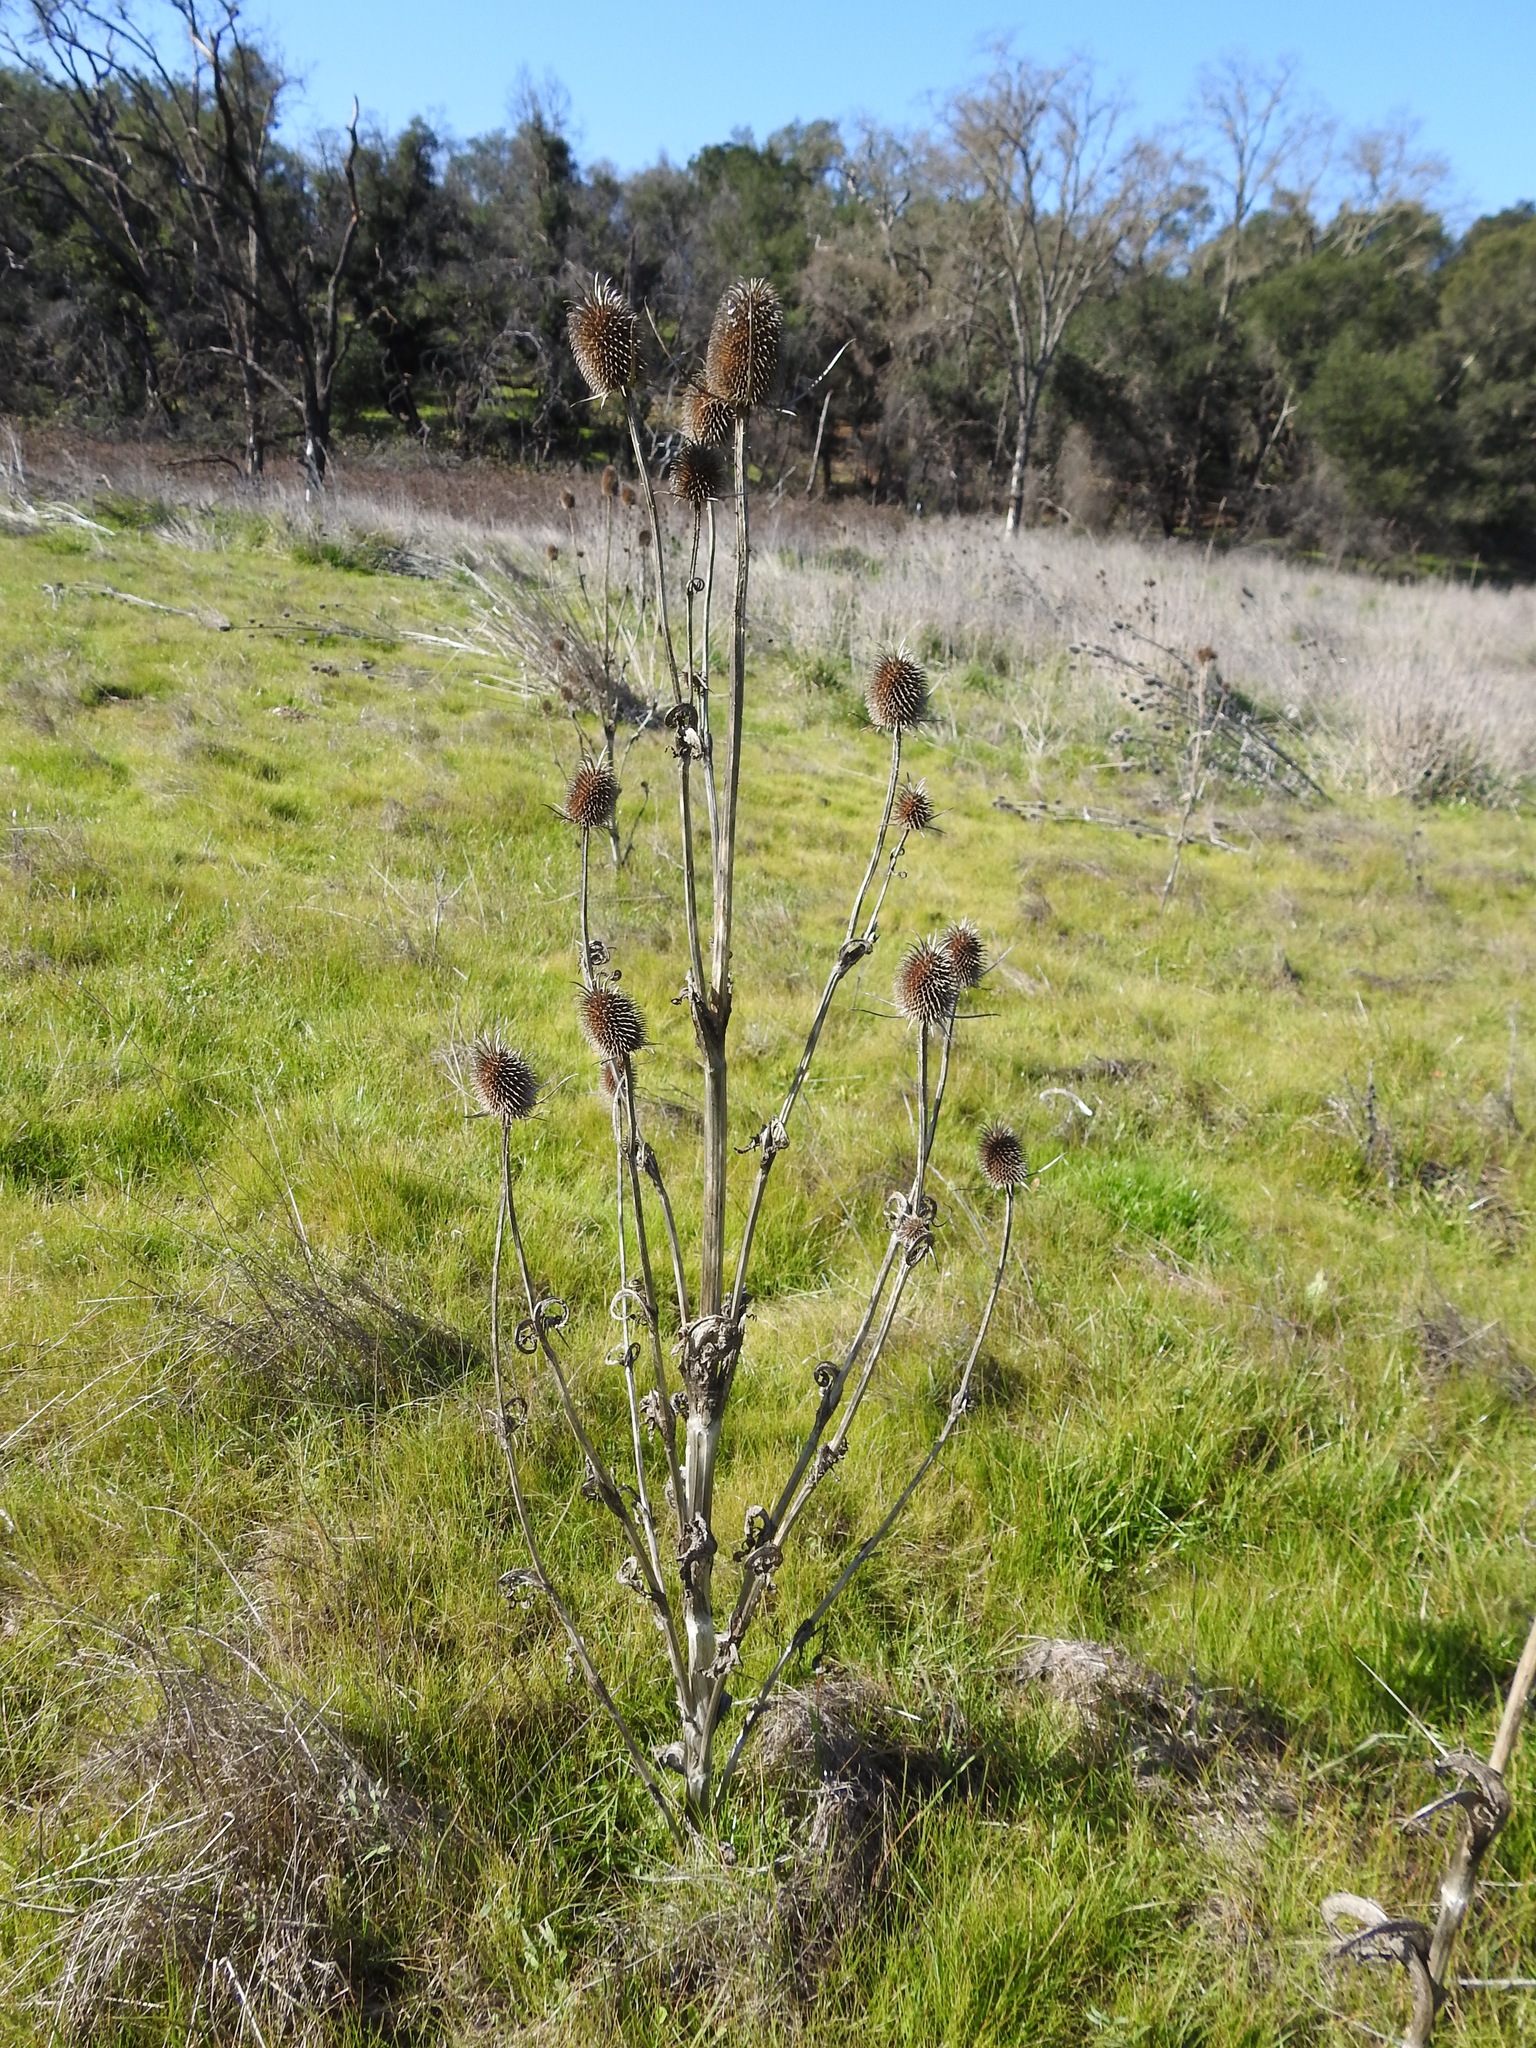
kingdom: Plantae
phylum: Tracheophyta
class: Magnoliopsida
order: Dipsacales
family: Caprifoliaceae
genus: Dipsacus
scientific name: Dipsacus sativus
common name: Fuller's teasel
